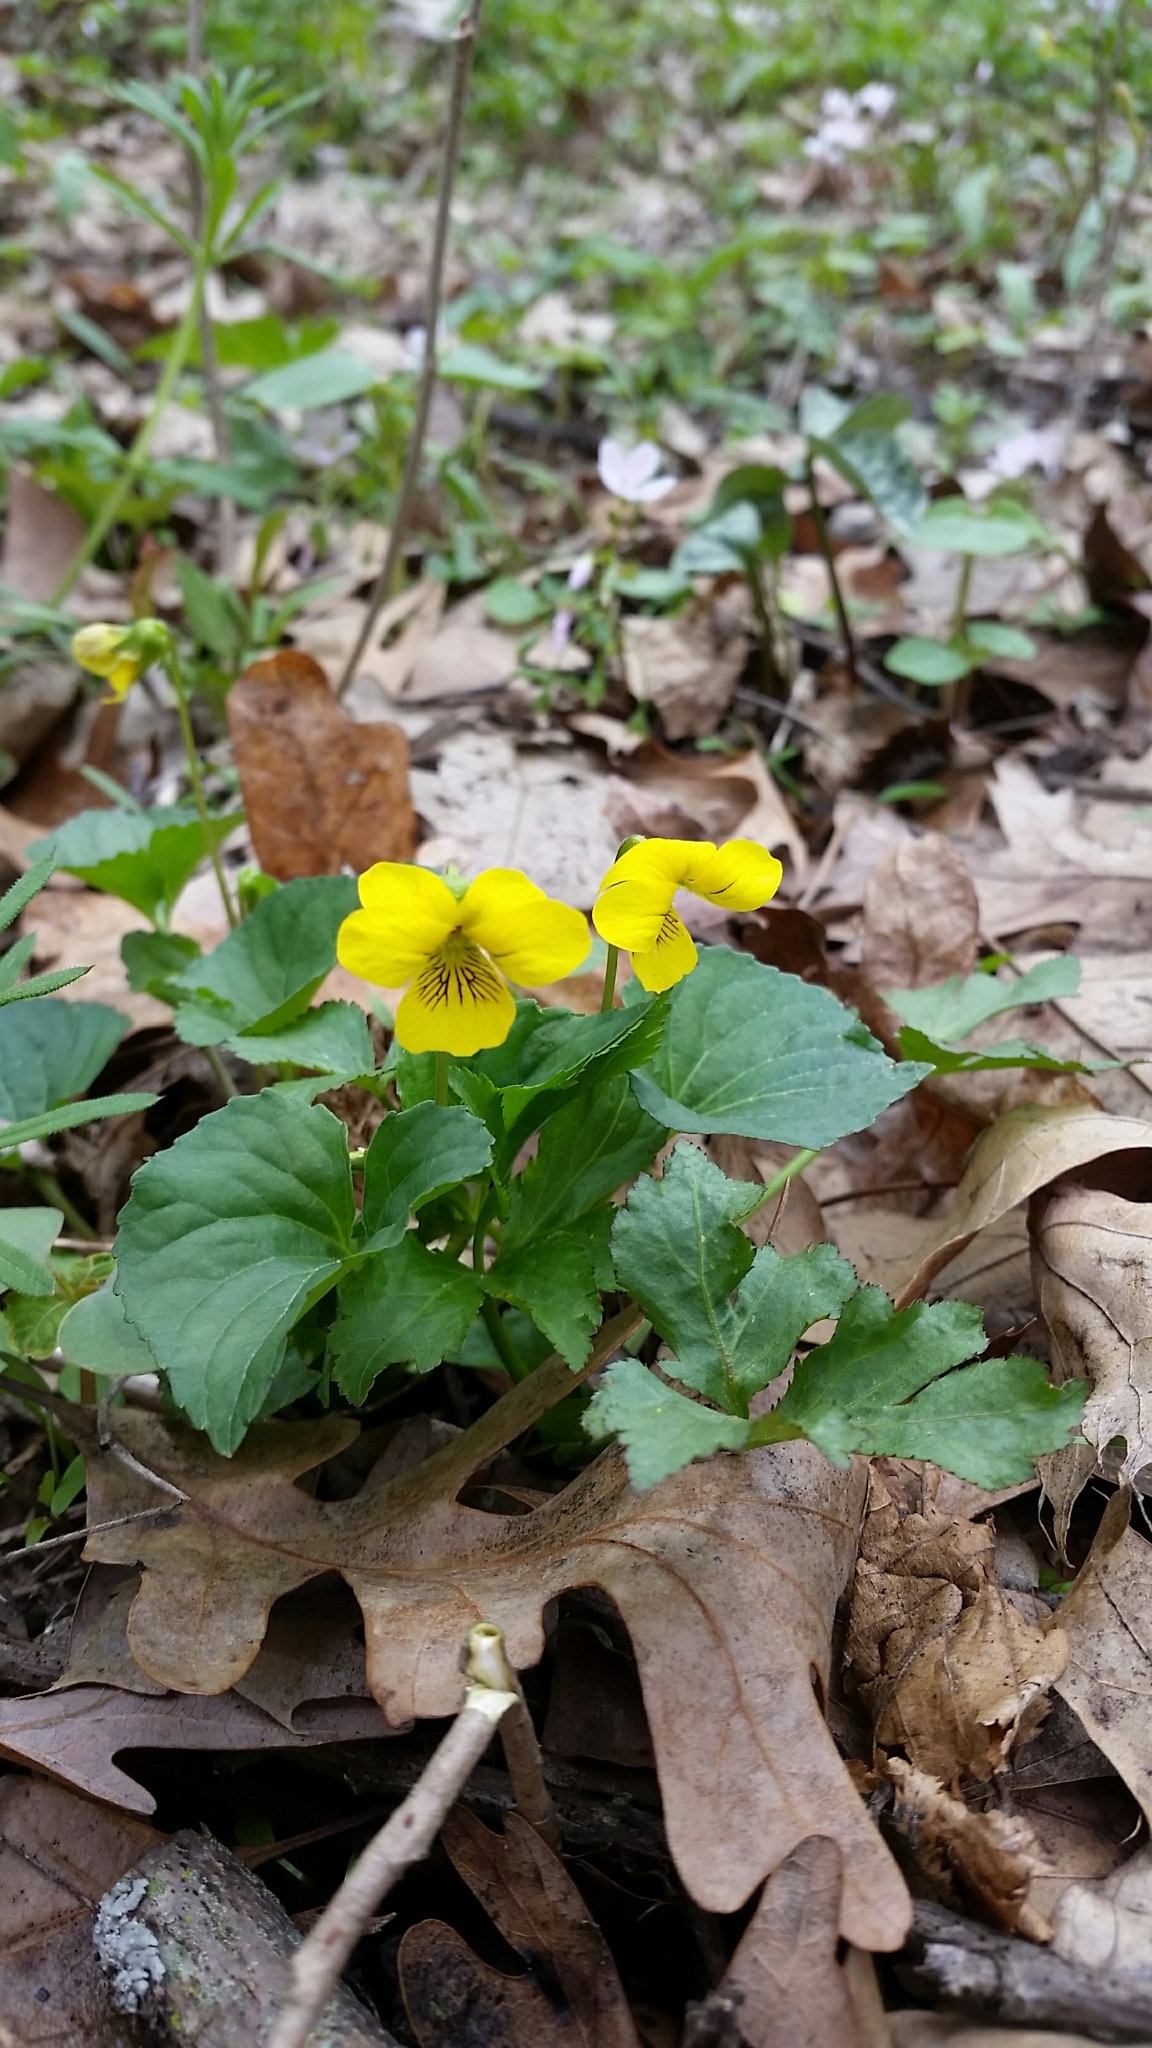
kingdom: Plantae
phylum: Tracheophyta
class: Magnoliopsida
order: Malpighiales
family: Violaceae
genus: Viola
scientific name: Viola eriocarpa
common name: Smooth yellow violet
